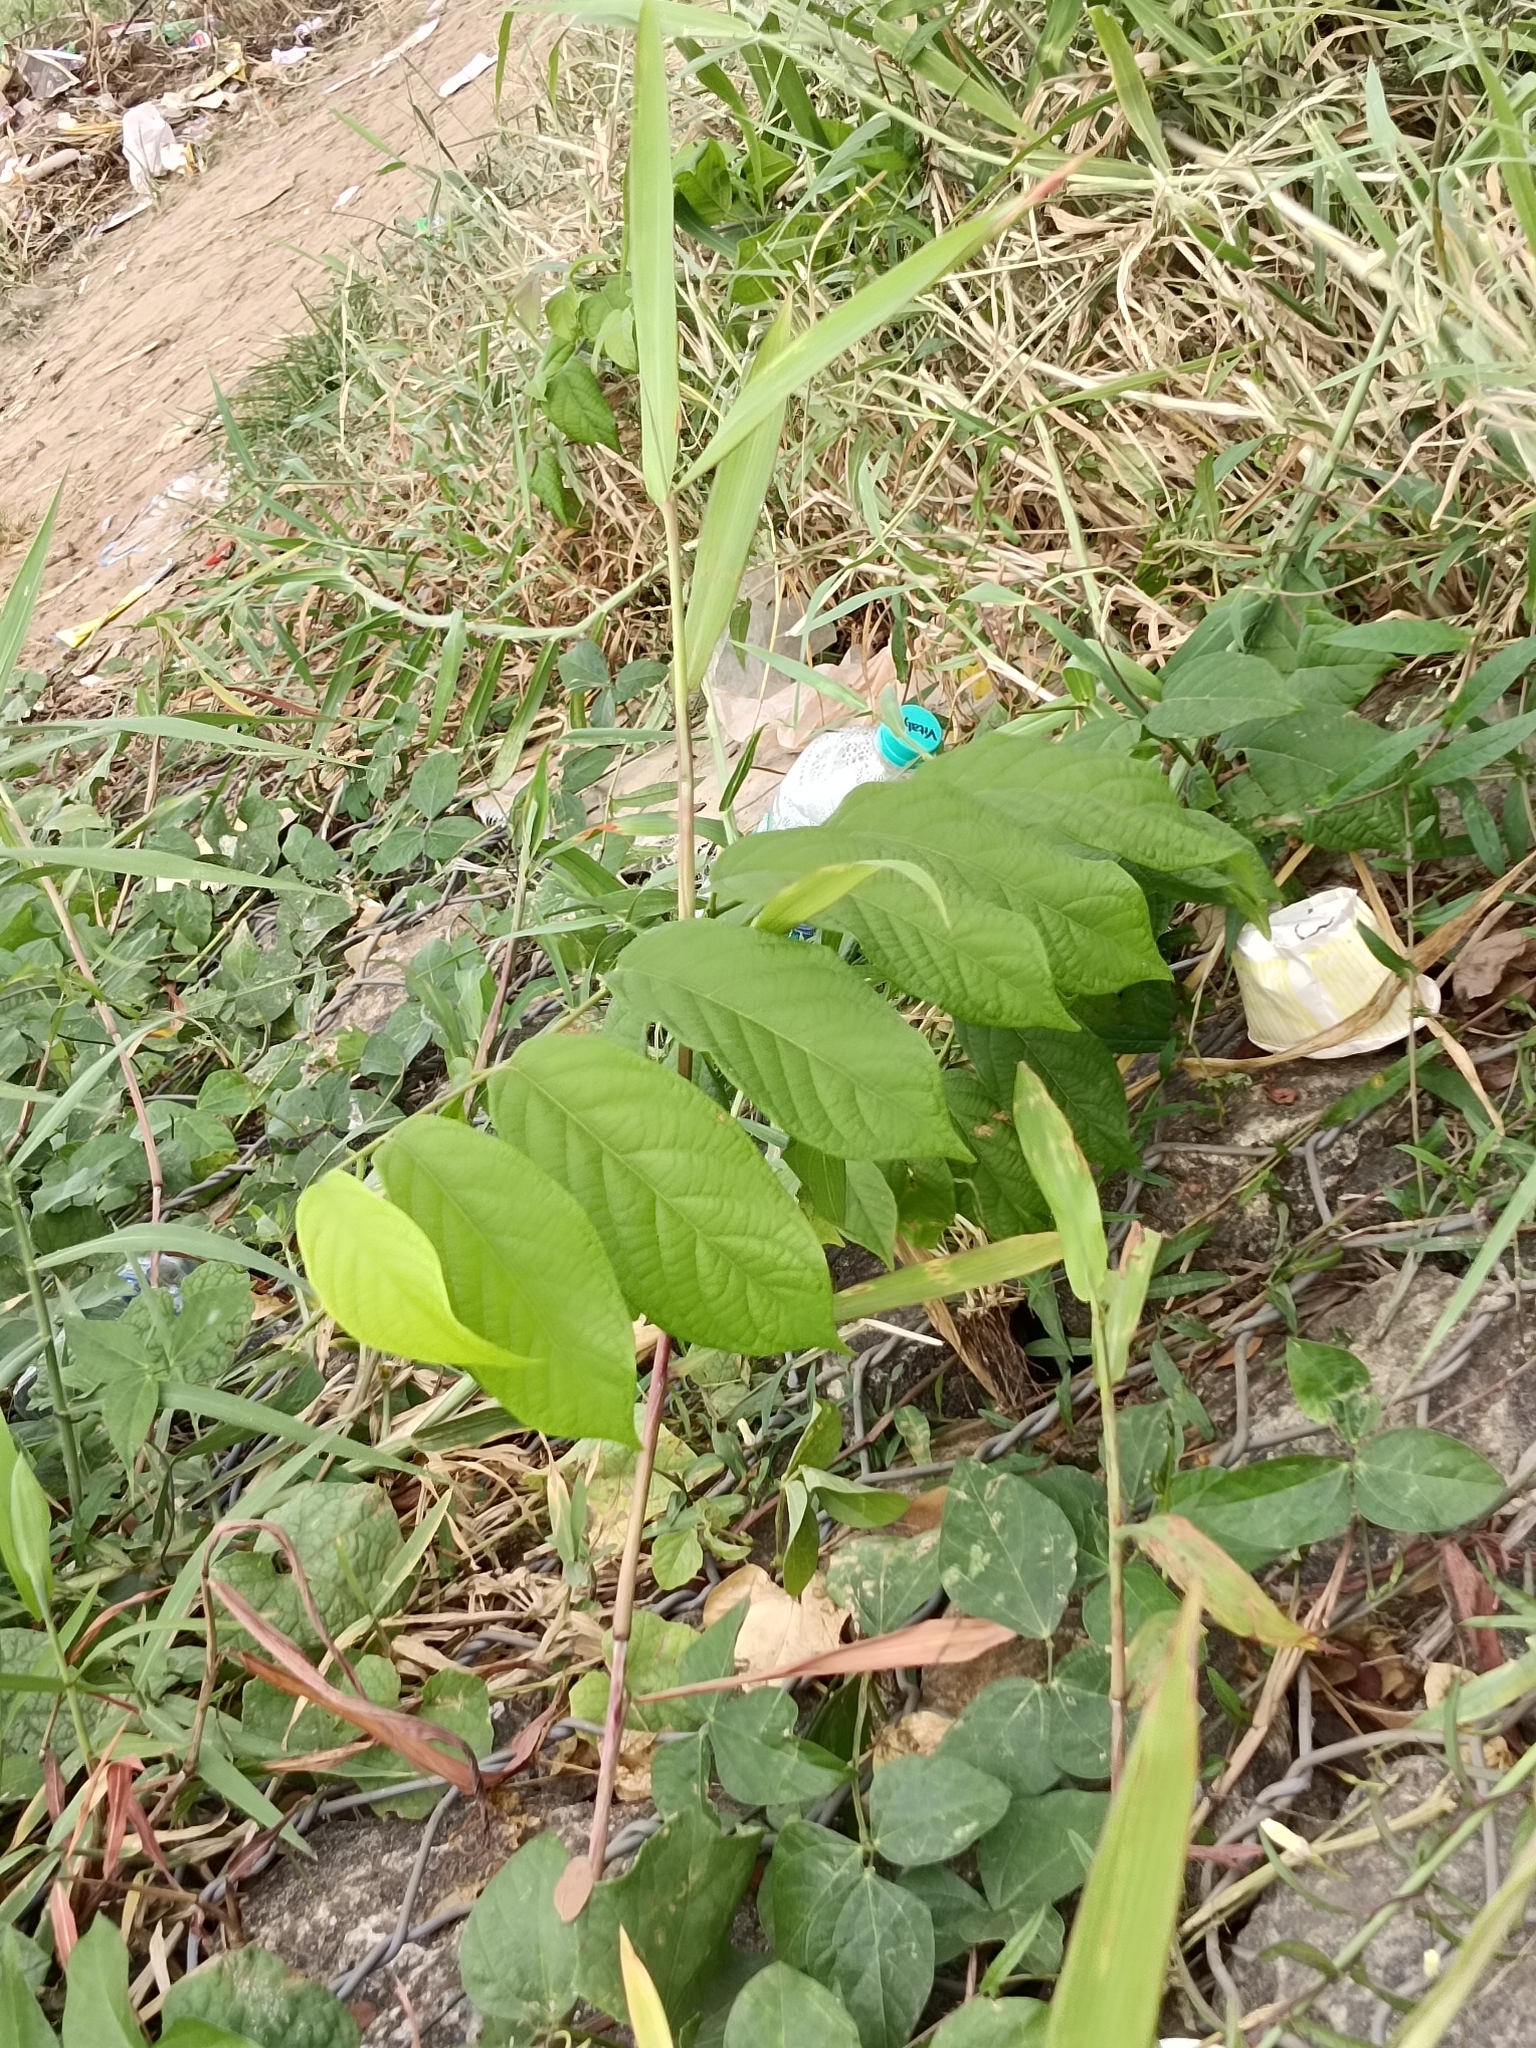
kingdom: Plantae
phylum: Tracheophyta
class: Magnoliopsida
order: Myrtales
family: Combretaceae
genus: Combretum
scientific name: Combretum indicum
